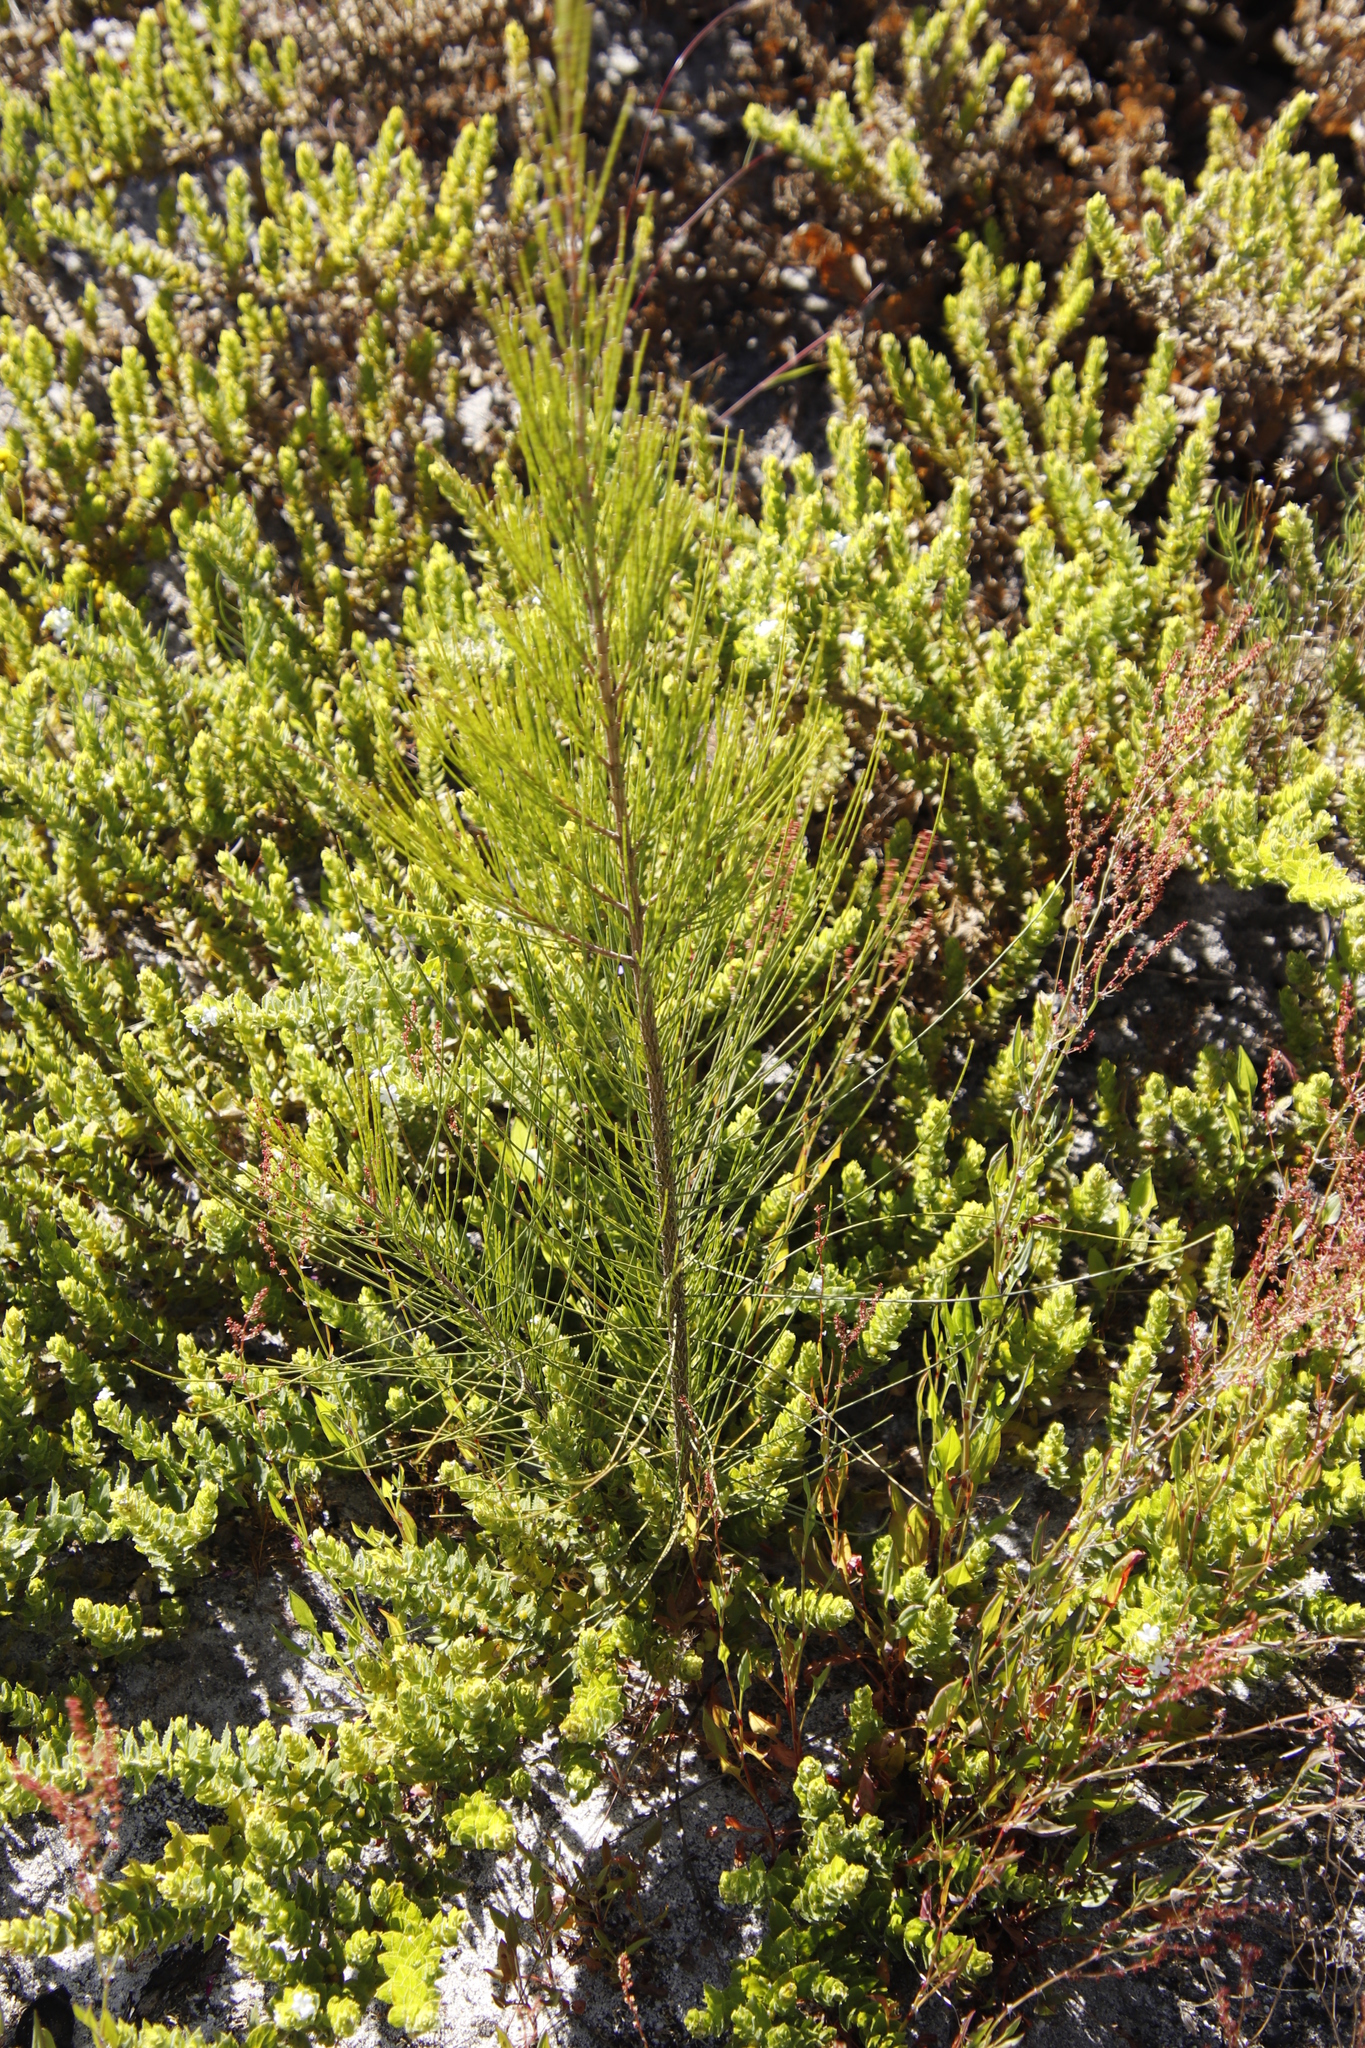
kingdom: Plantae
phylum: Tracheophyta
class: Magnoliopsida
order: Fagales
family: Casuarinaceae
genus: Casuarina
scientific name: Casuarina cunninghamiana
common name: River sheoak
